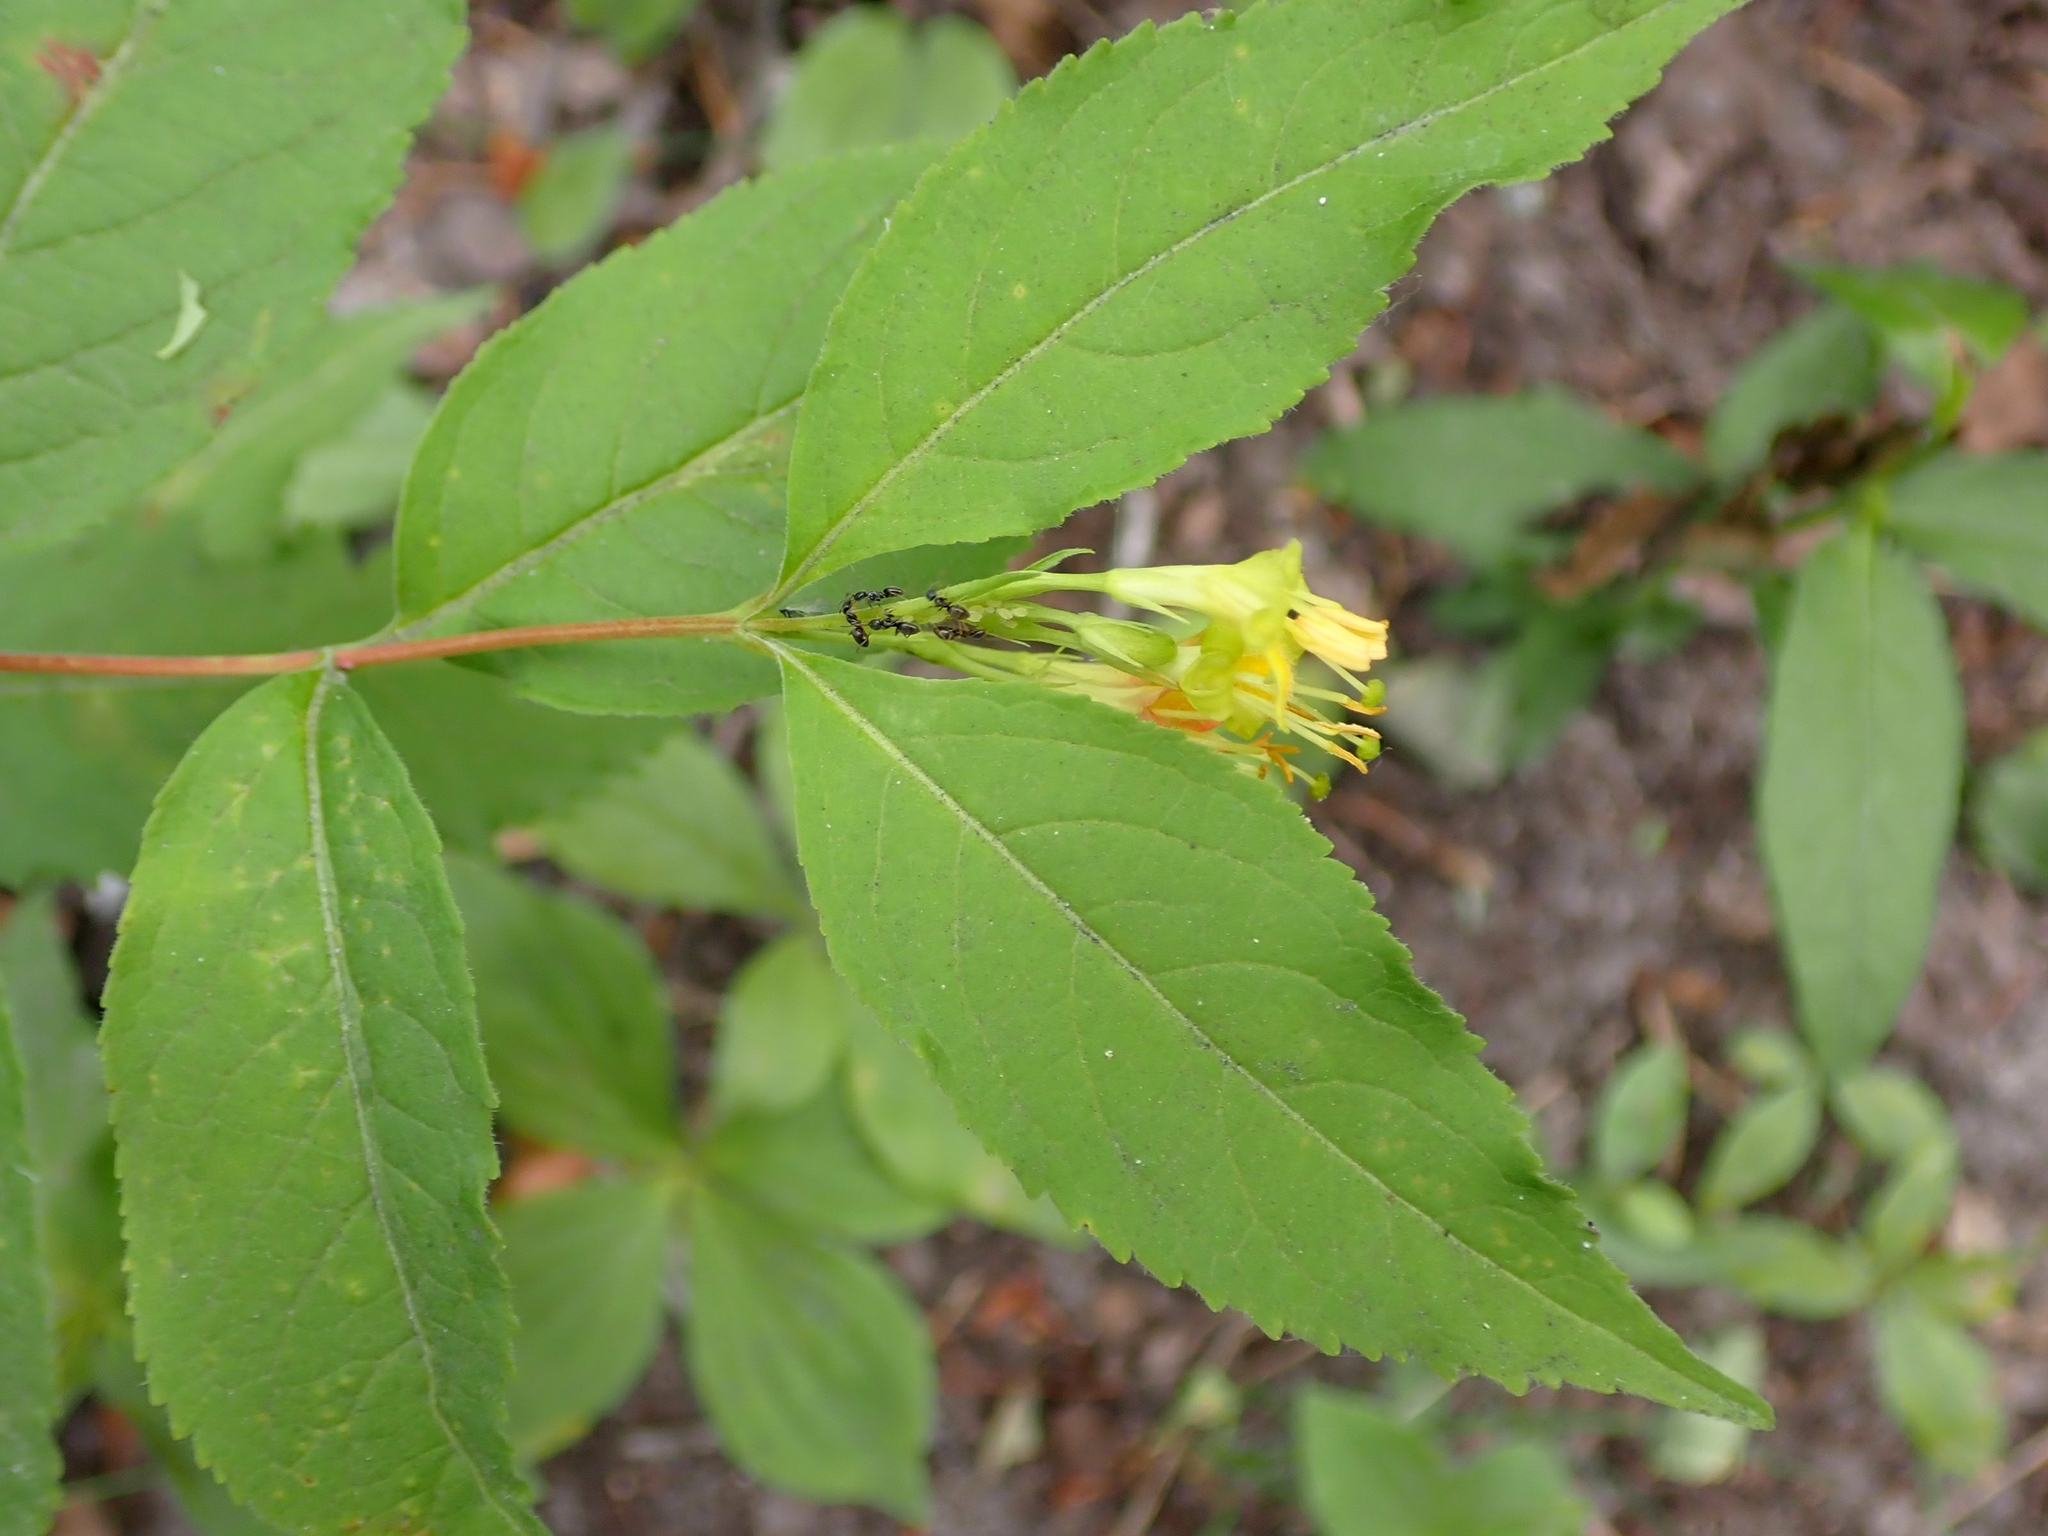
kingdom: Plantae
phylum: Tracheophyta
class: Magnoliopsida
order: Dipsacales
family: Caprifoliaceae
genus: Diervilla
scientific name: Diervilla lonicera
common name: Bush-honeysuckle
